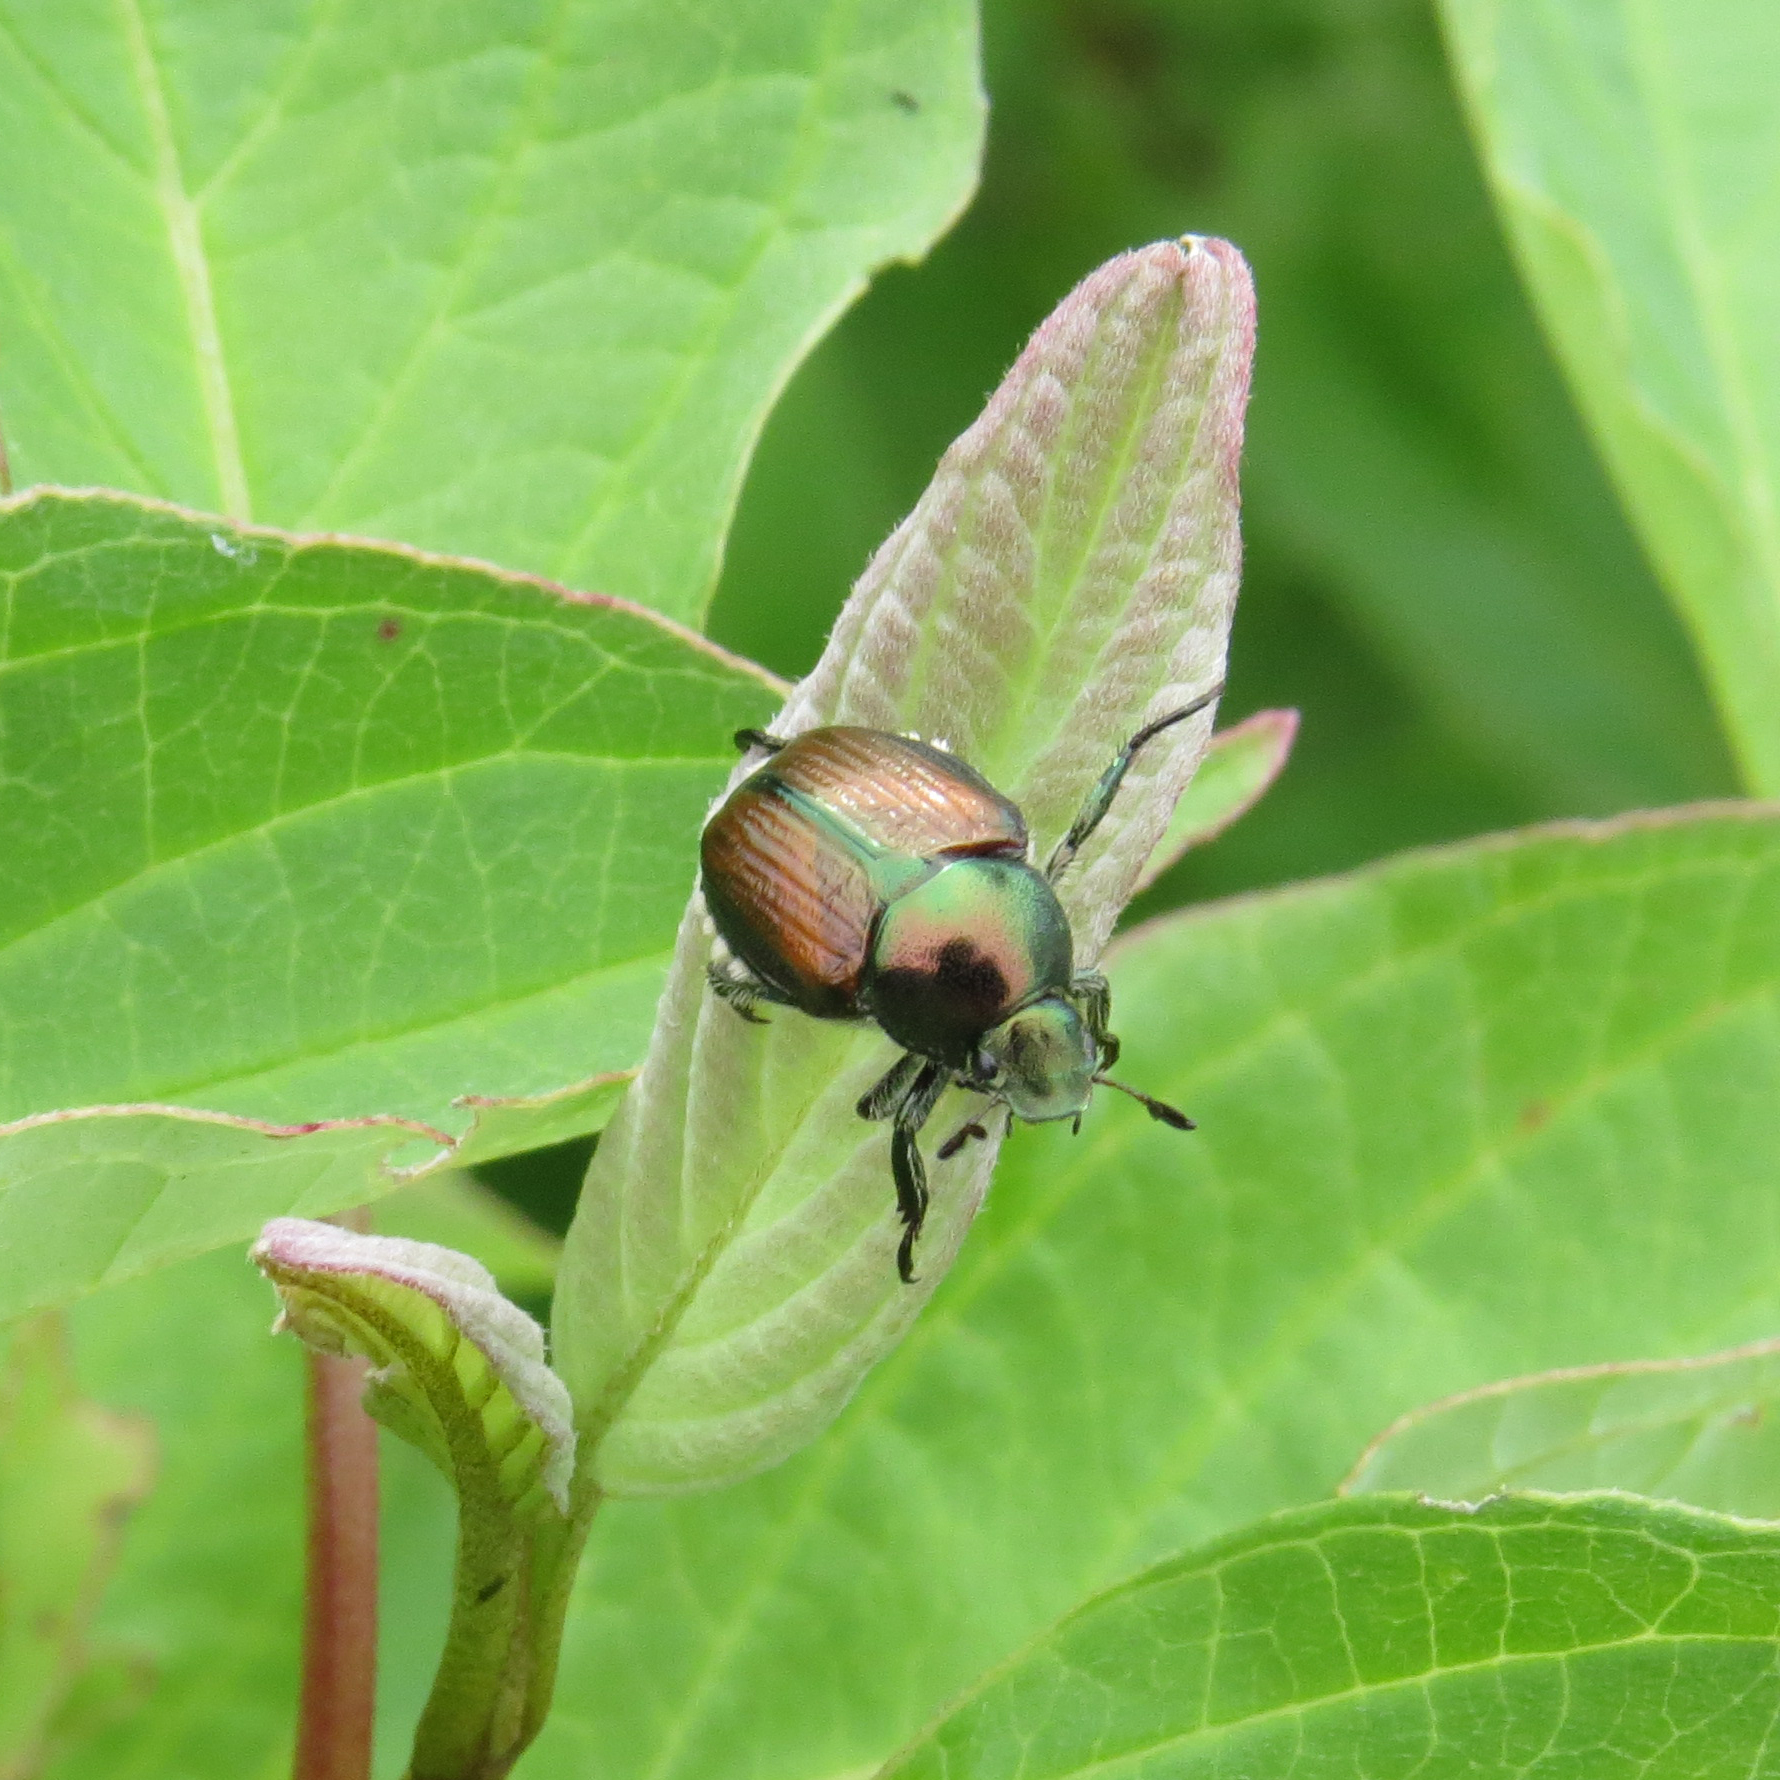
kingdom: Animalia
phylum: Arthropoda
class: Insecta
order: Coleoptera
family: Scarabaeidae
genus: Popillia
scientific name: Popillia japonica
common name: Japanese beetle
